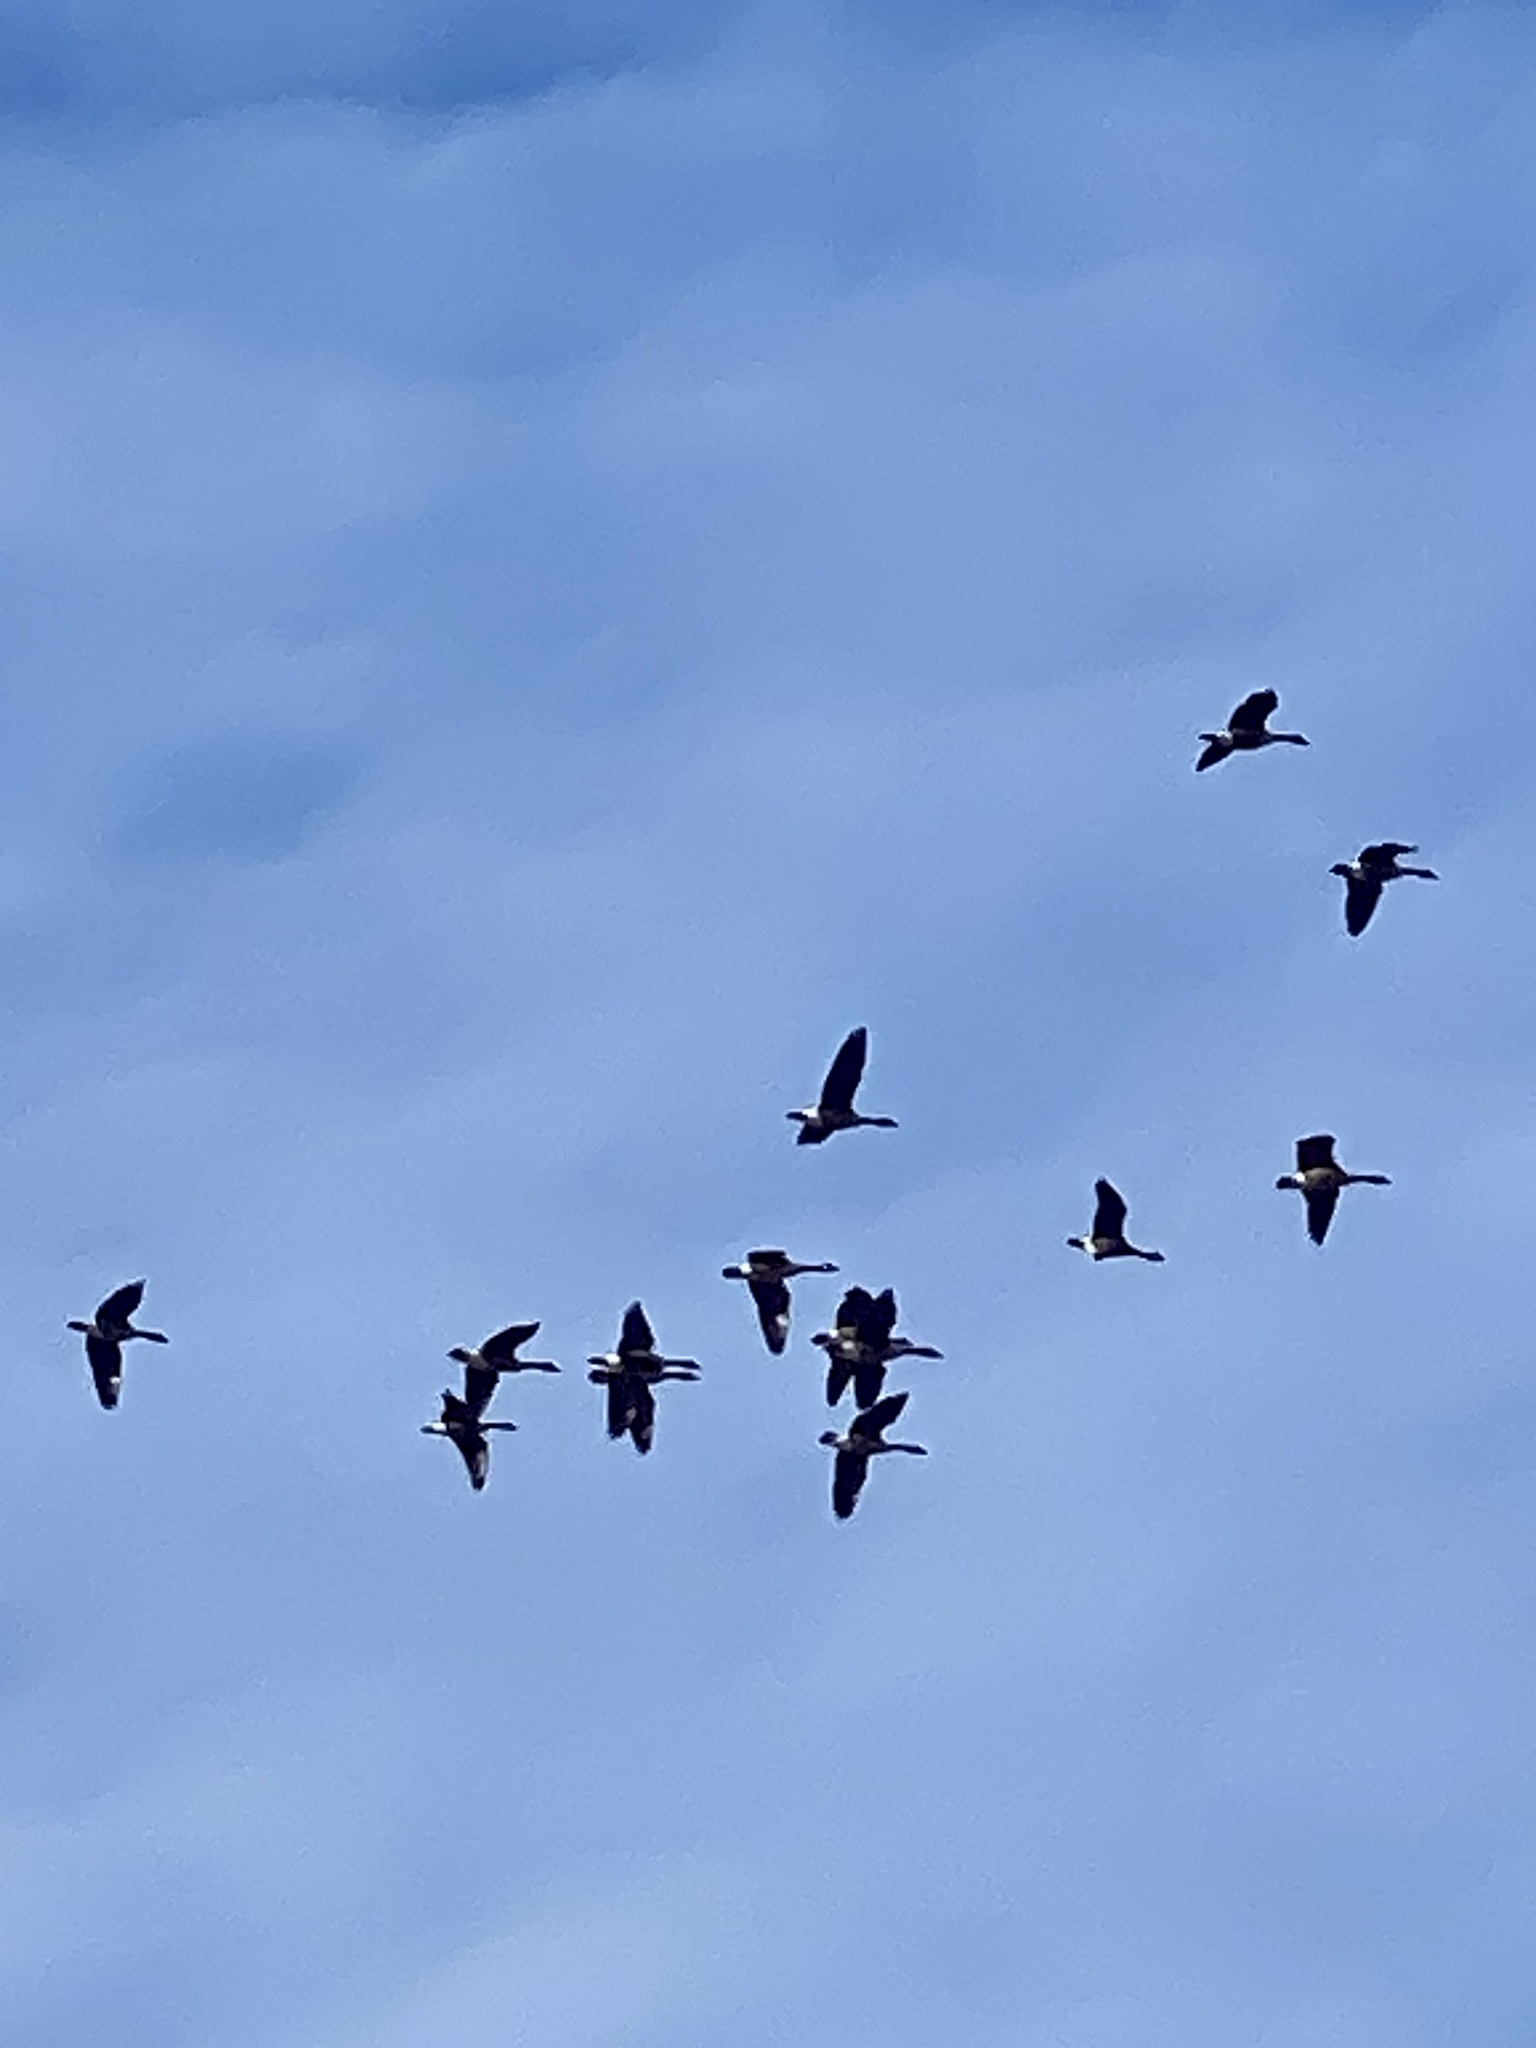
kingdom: Animalia
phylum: Chordata
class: Aves
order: Anseriformes
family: Anatidae
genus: Branta
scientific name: Branta canadensis
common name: Canada goose
